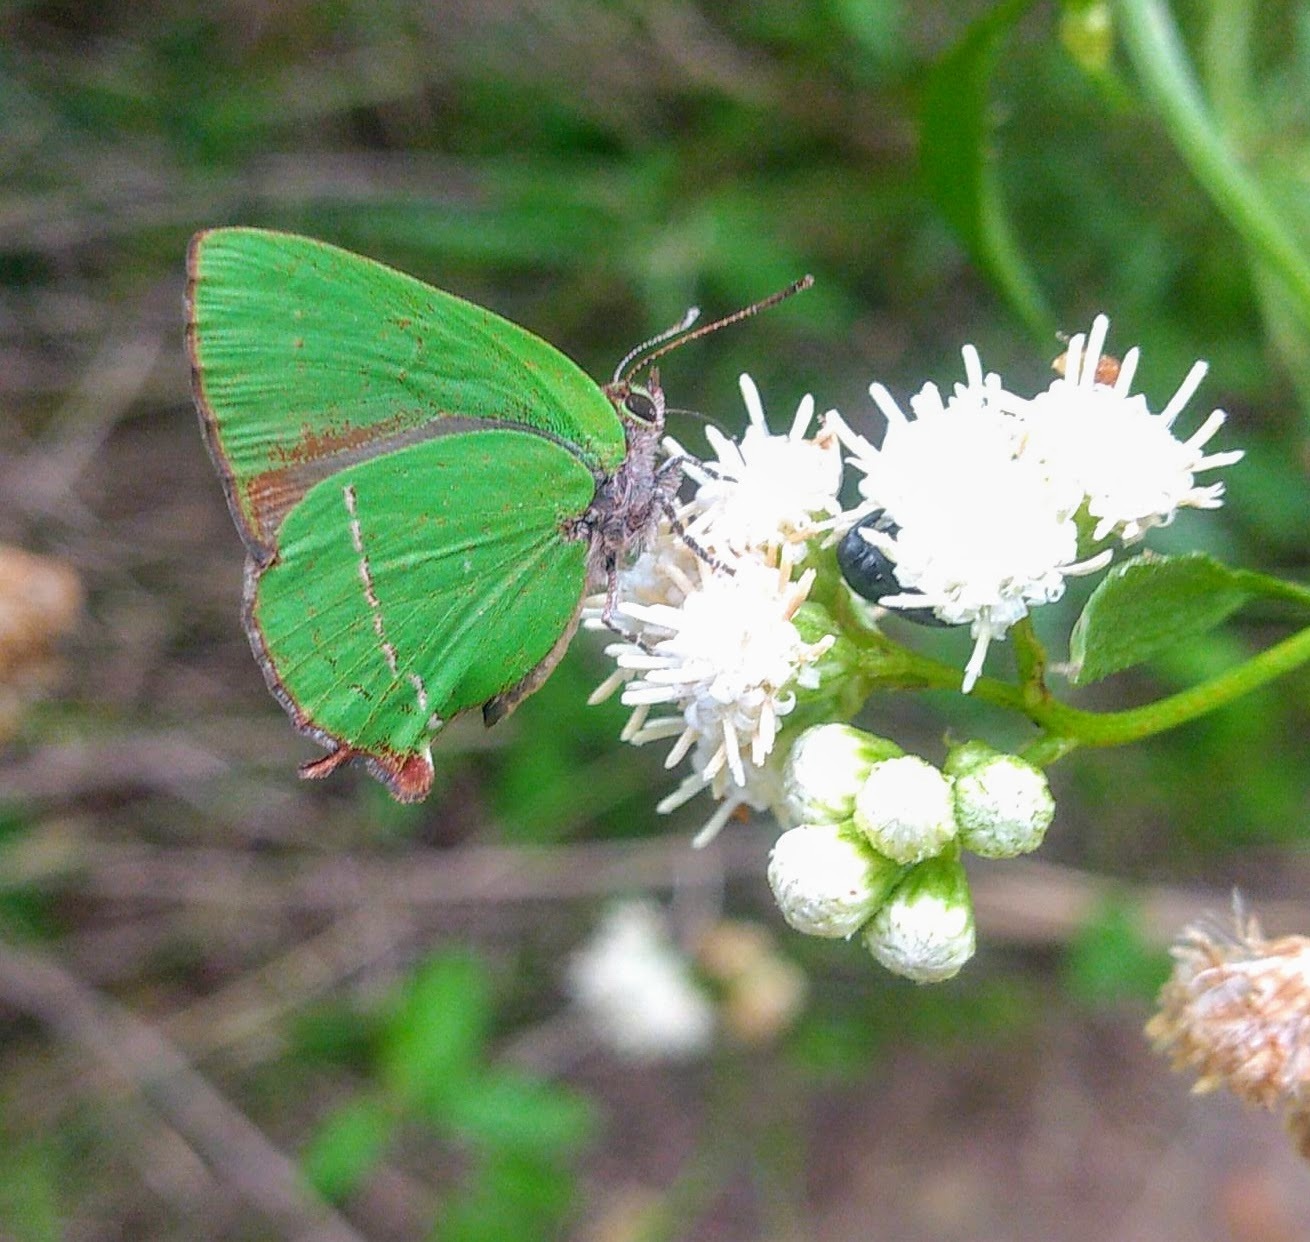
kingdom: Animalia
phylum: Arthropoda
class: Insecta
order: Lepidoptera
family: Lycaenidae
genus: Cyanophrys
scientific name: Cyanophrys
